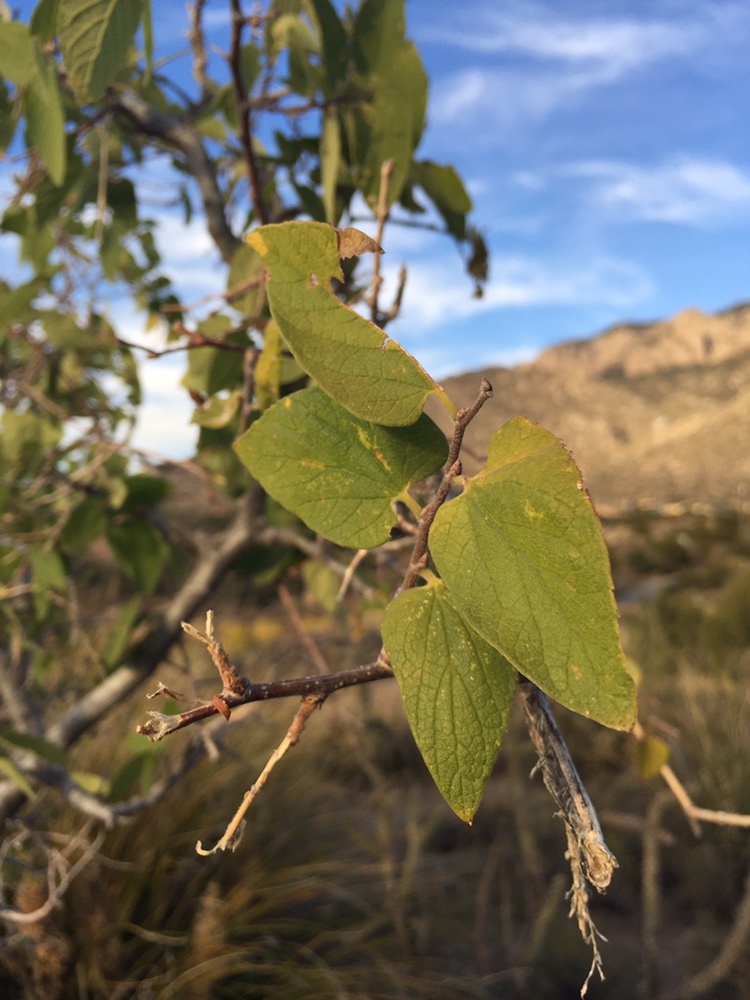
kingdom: Plantae
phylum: Tracheophyta
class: Magnoliopsida
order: Rosales
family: Cannabaceae
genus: Celtis
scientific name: Celtis reticulata
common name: Netleaf hackberry
